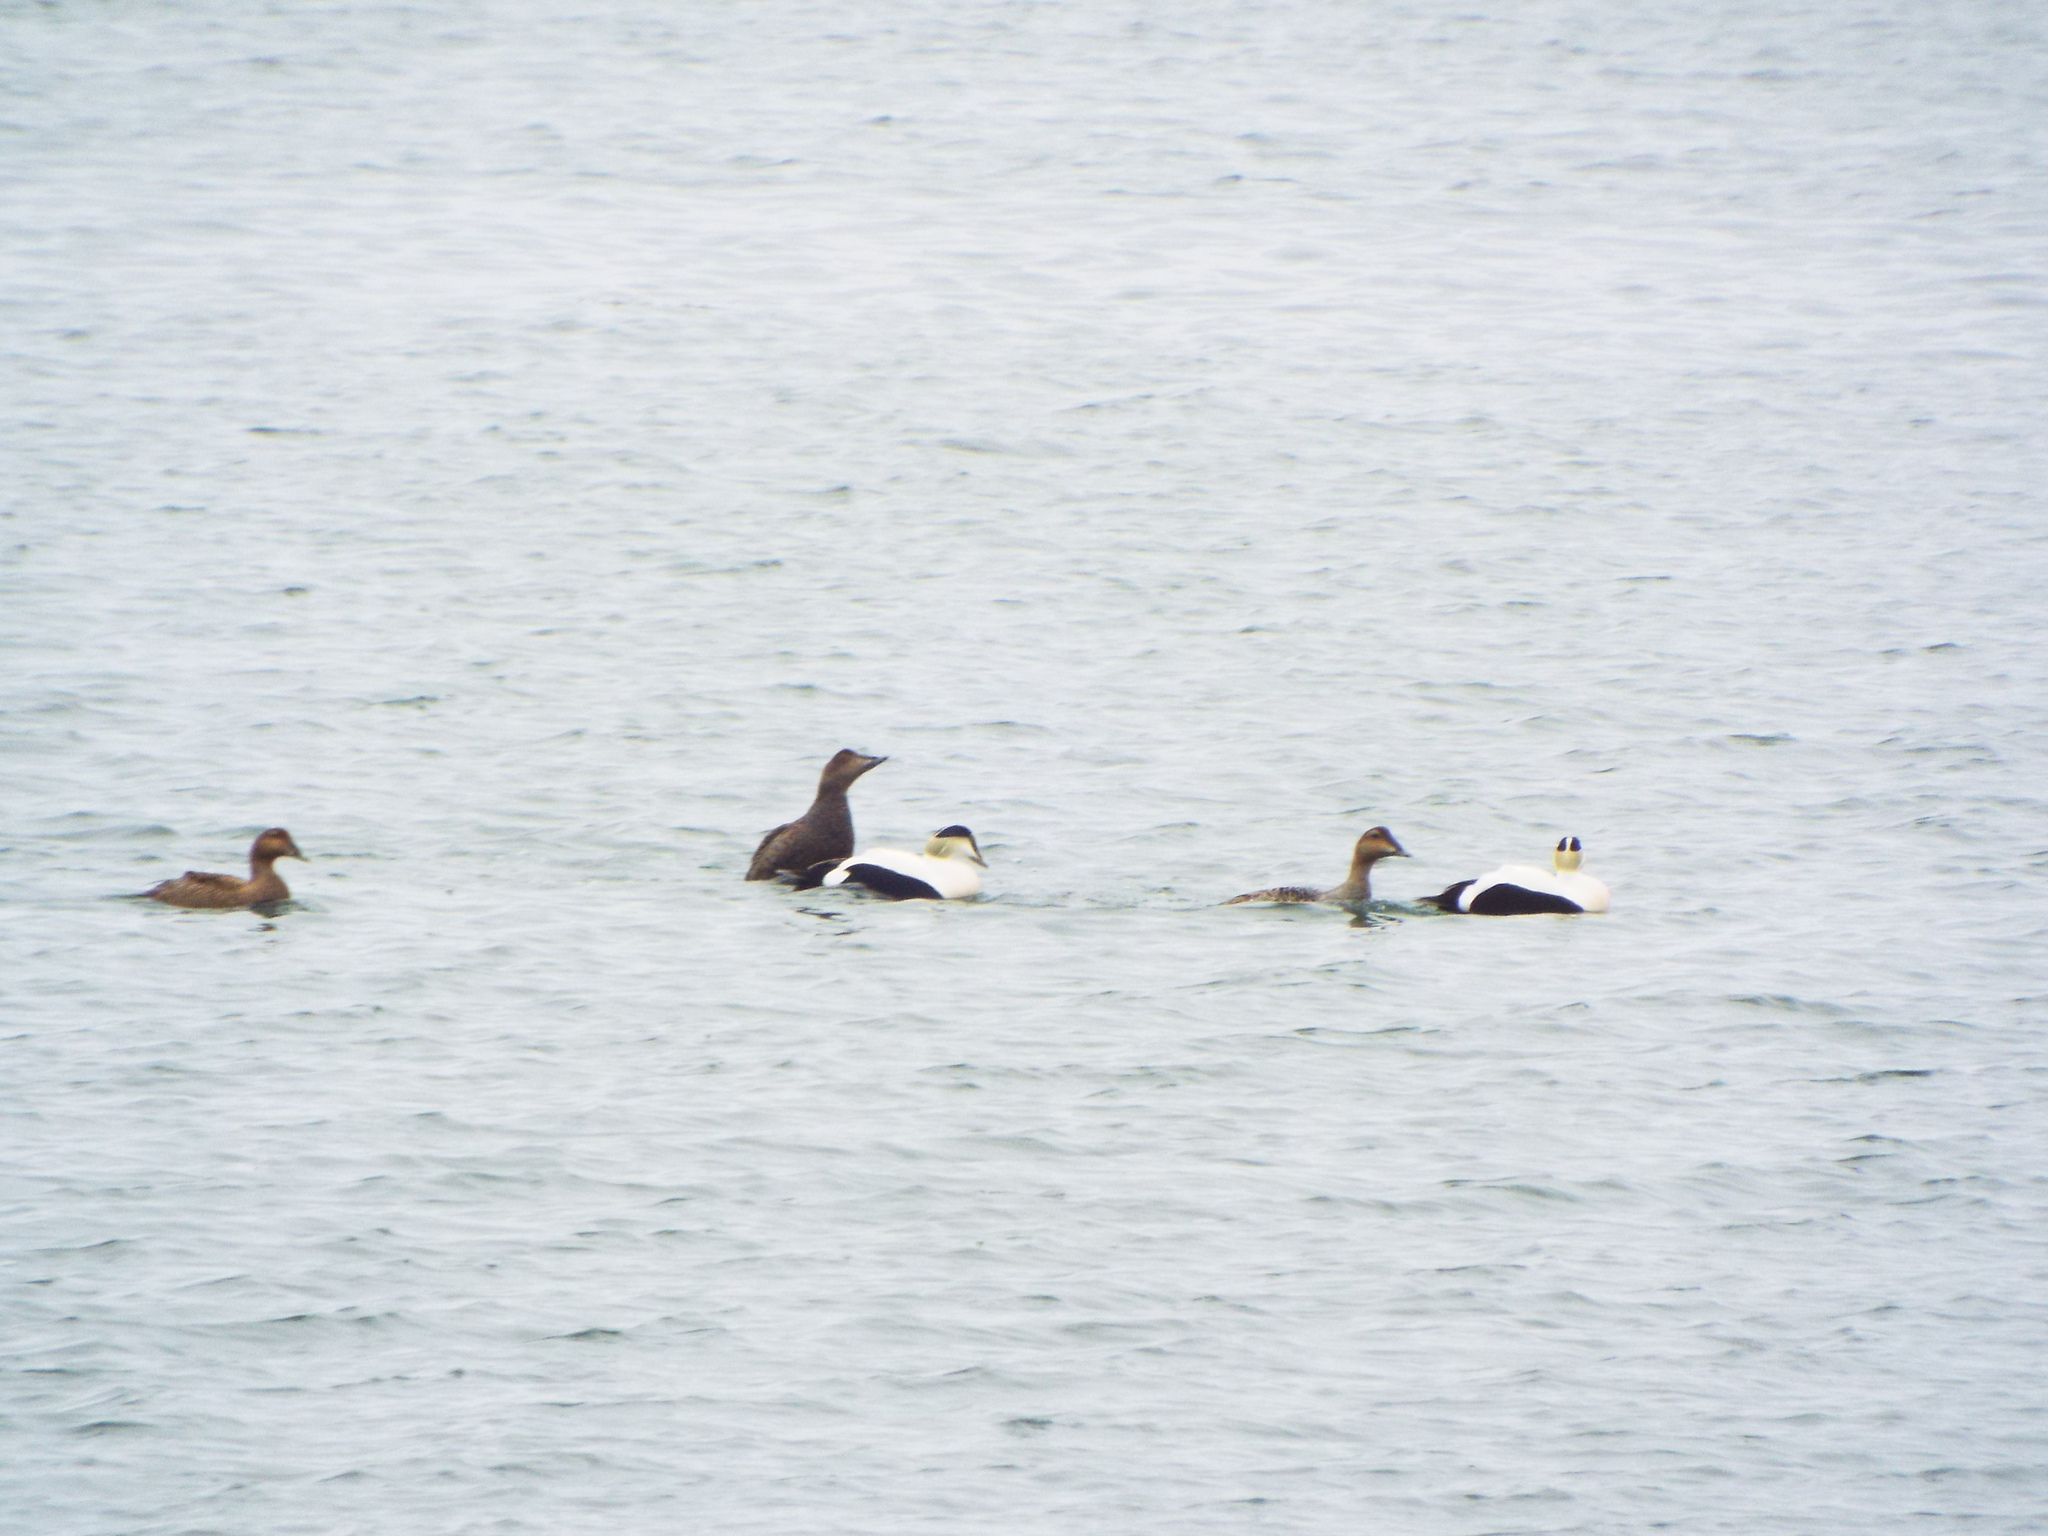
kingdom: Animalia
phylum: Chordata
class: Aves
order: Anseriformes
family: Anatidae
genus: Somateria
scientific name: Somateria mollissima
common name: Common eider
